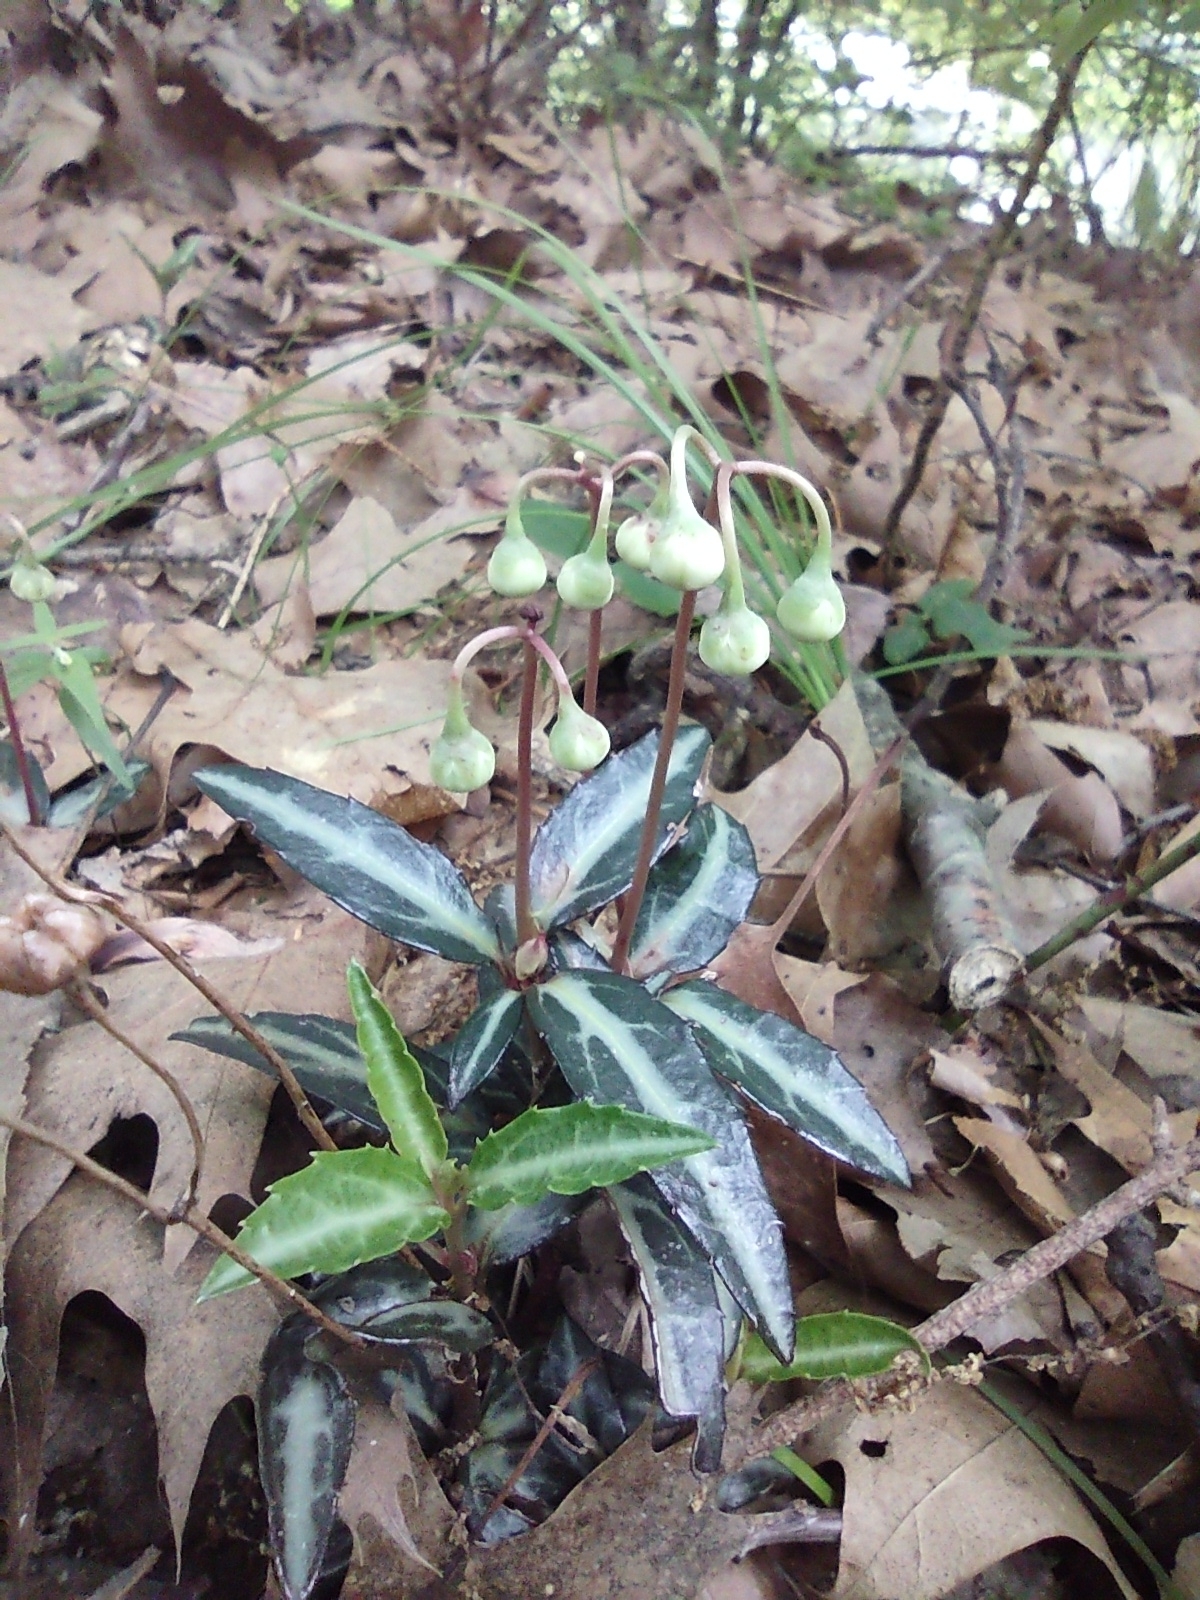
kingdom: Plantae
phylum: Tracheophyta
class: Magnoliopsida
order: Ericales
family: Ericaceae
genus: Chimaphila
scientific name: Chimaphila maculata
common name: Spotted pipsissewa
